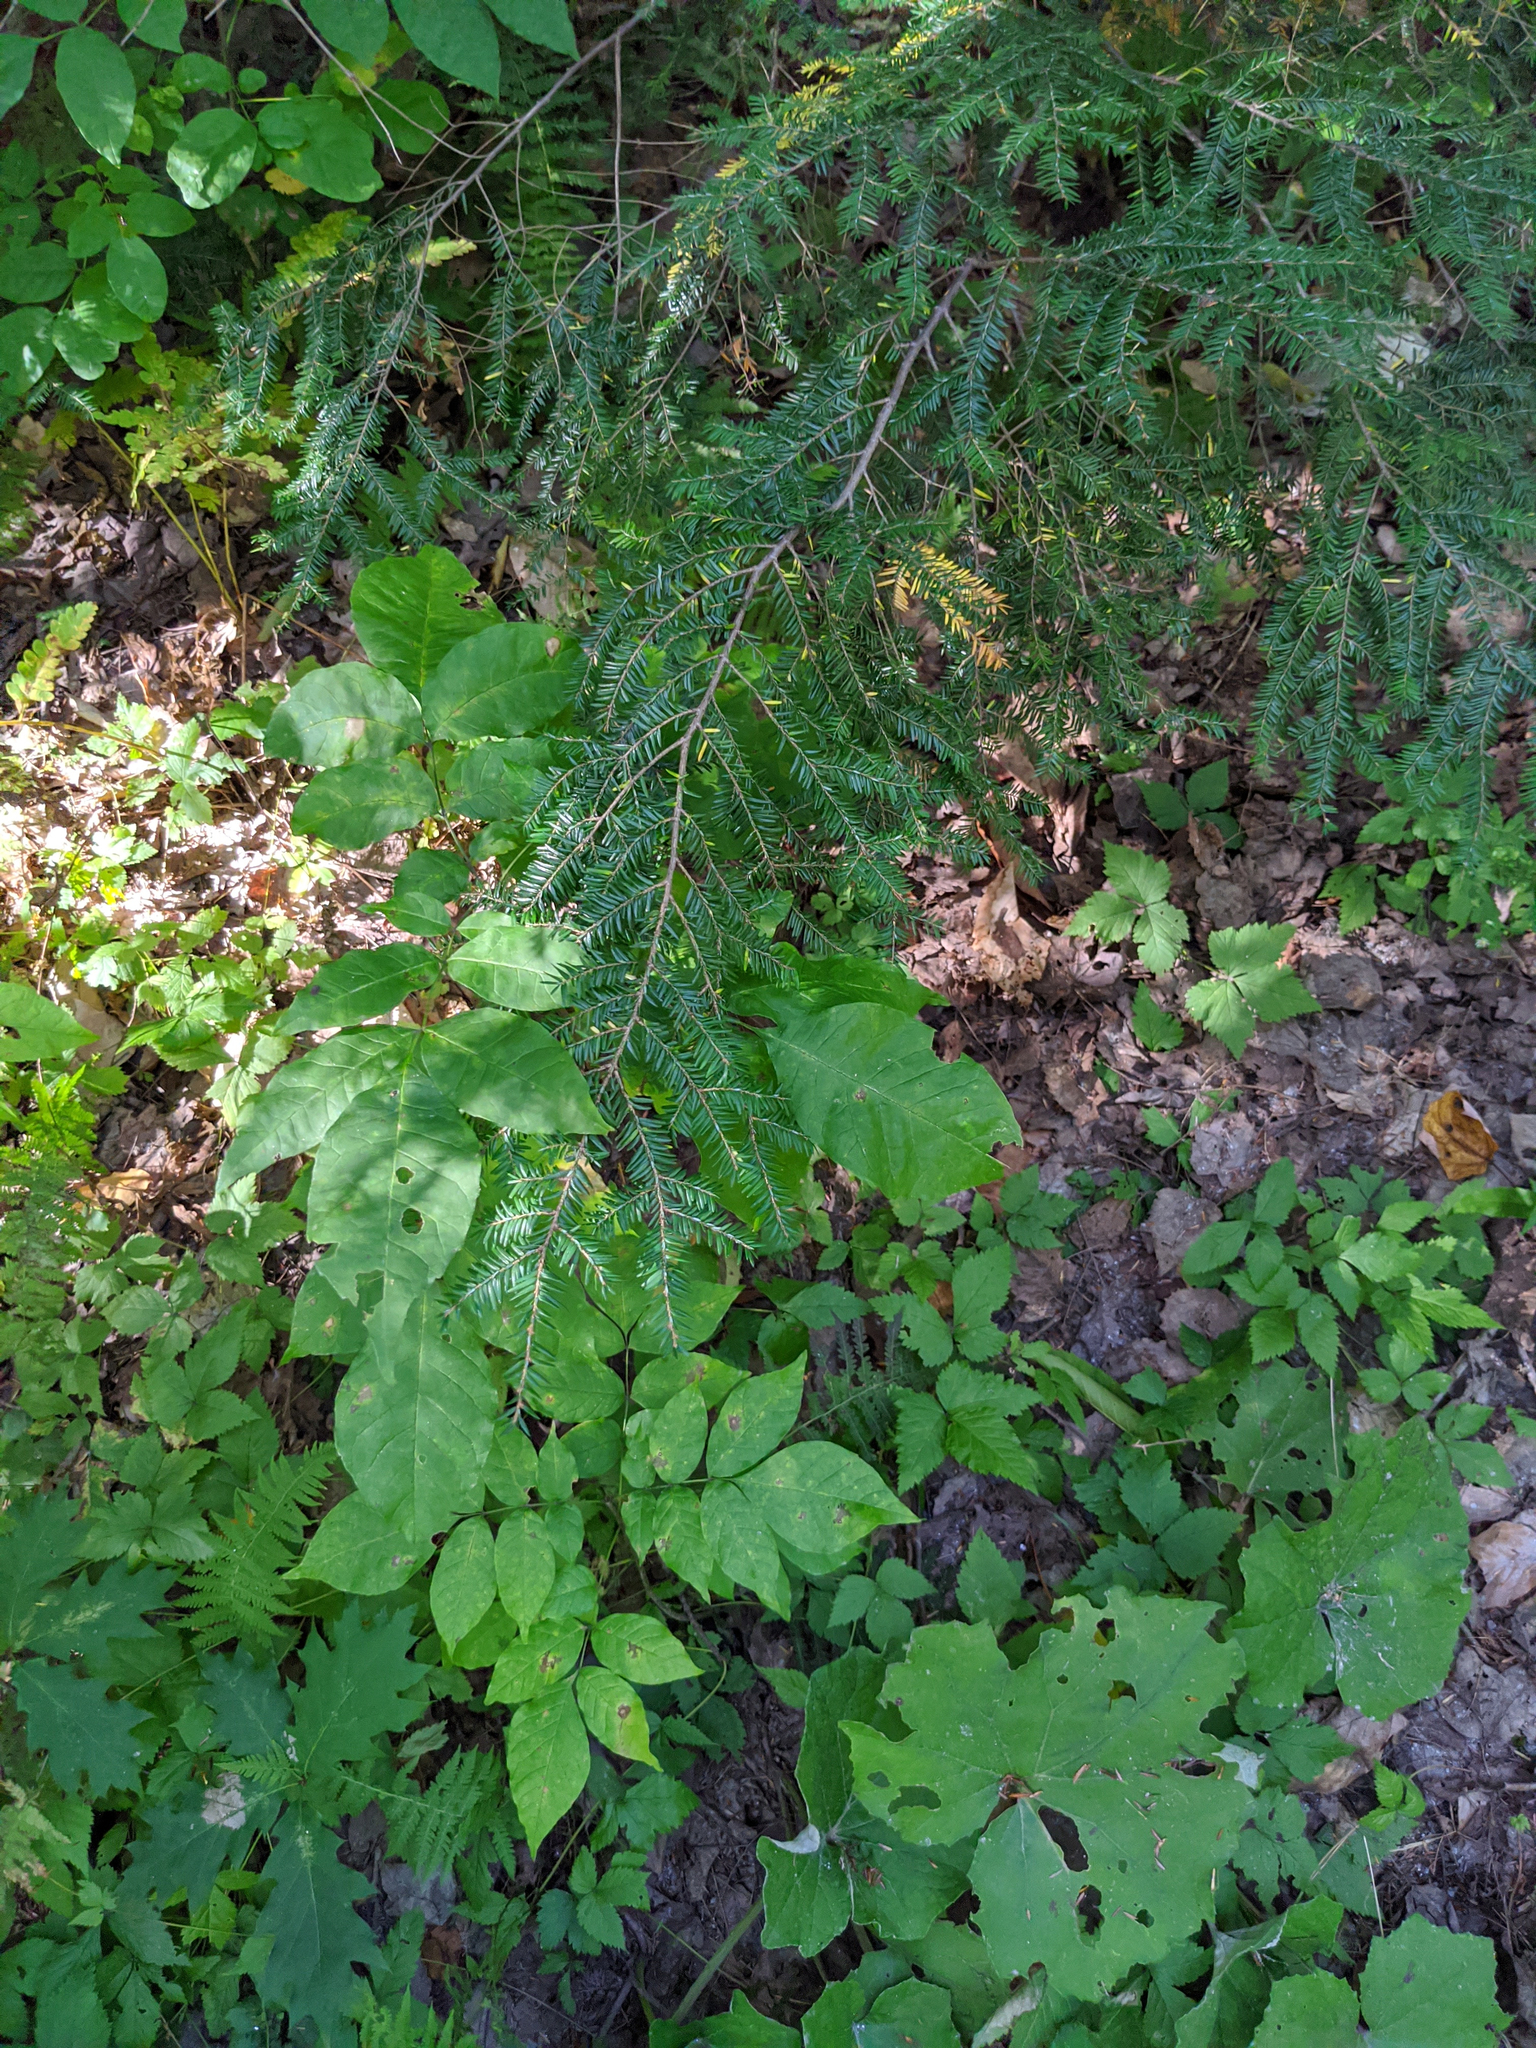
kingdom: Plantae
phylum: Tracheophyta
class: Pinopsida
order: Pinales
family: Pinaceae
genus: Tsuga
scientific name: Tsuga canadensis
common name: Eastern hemlock
